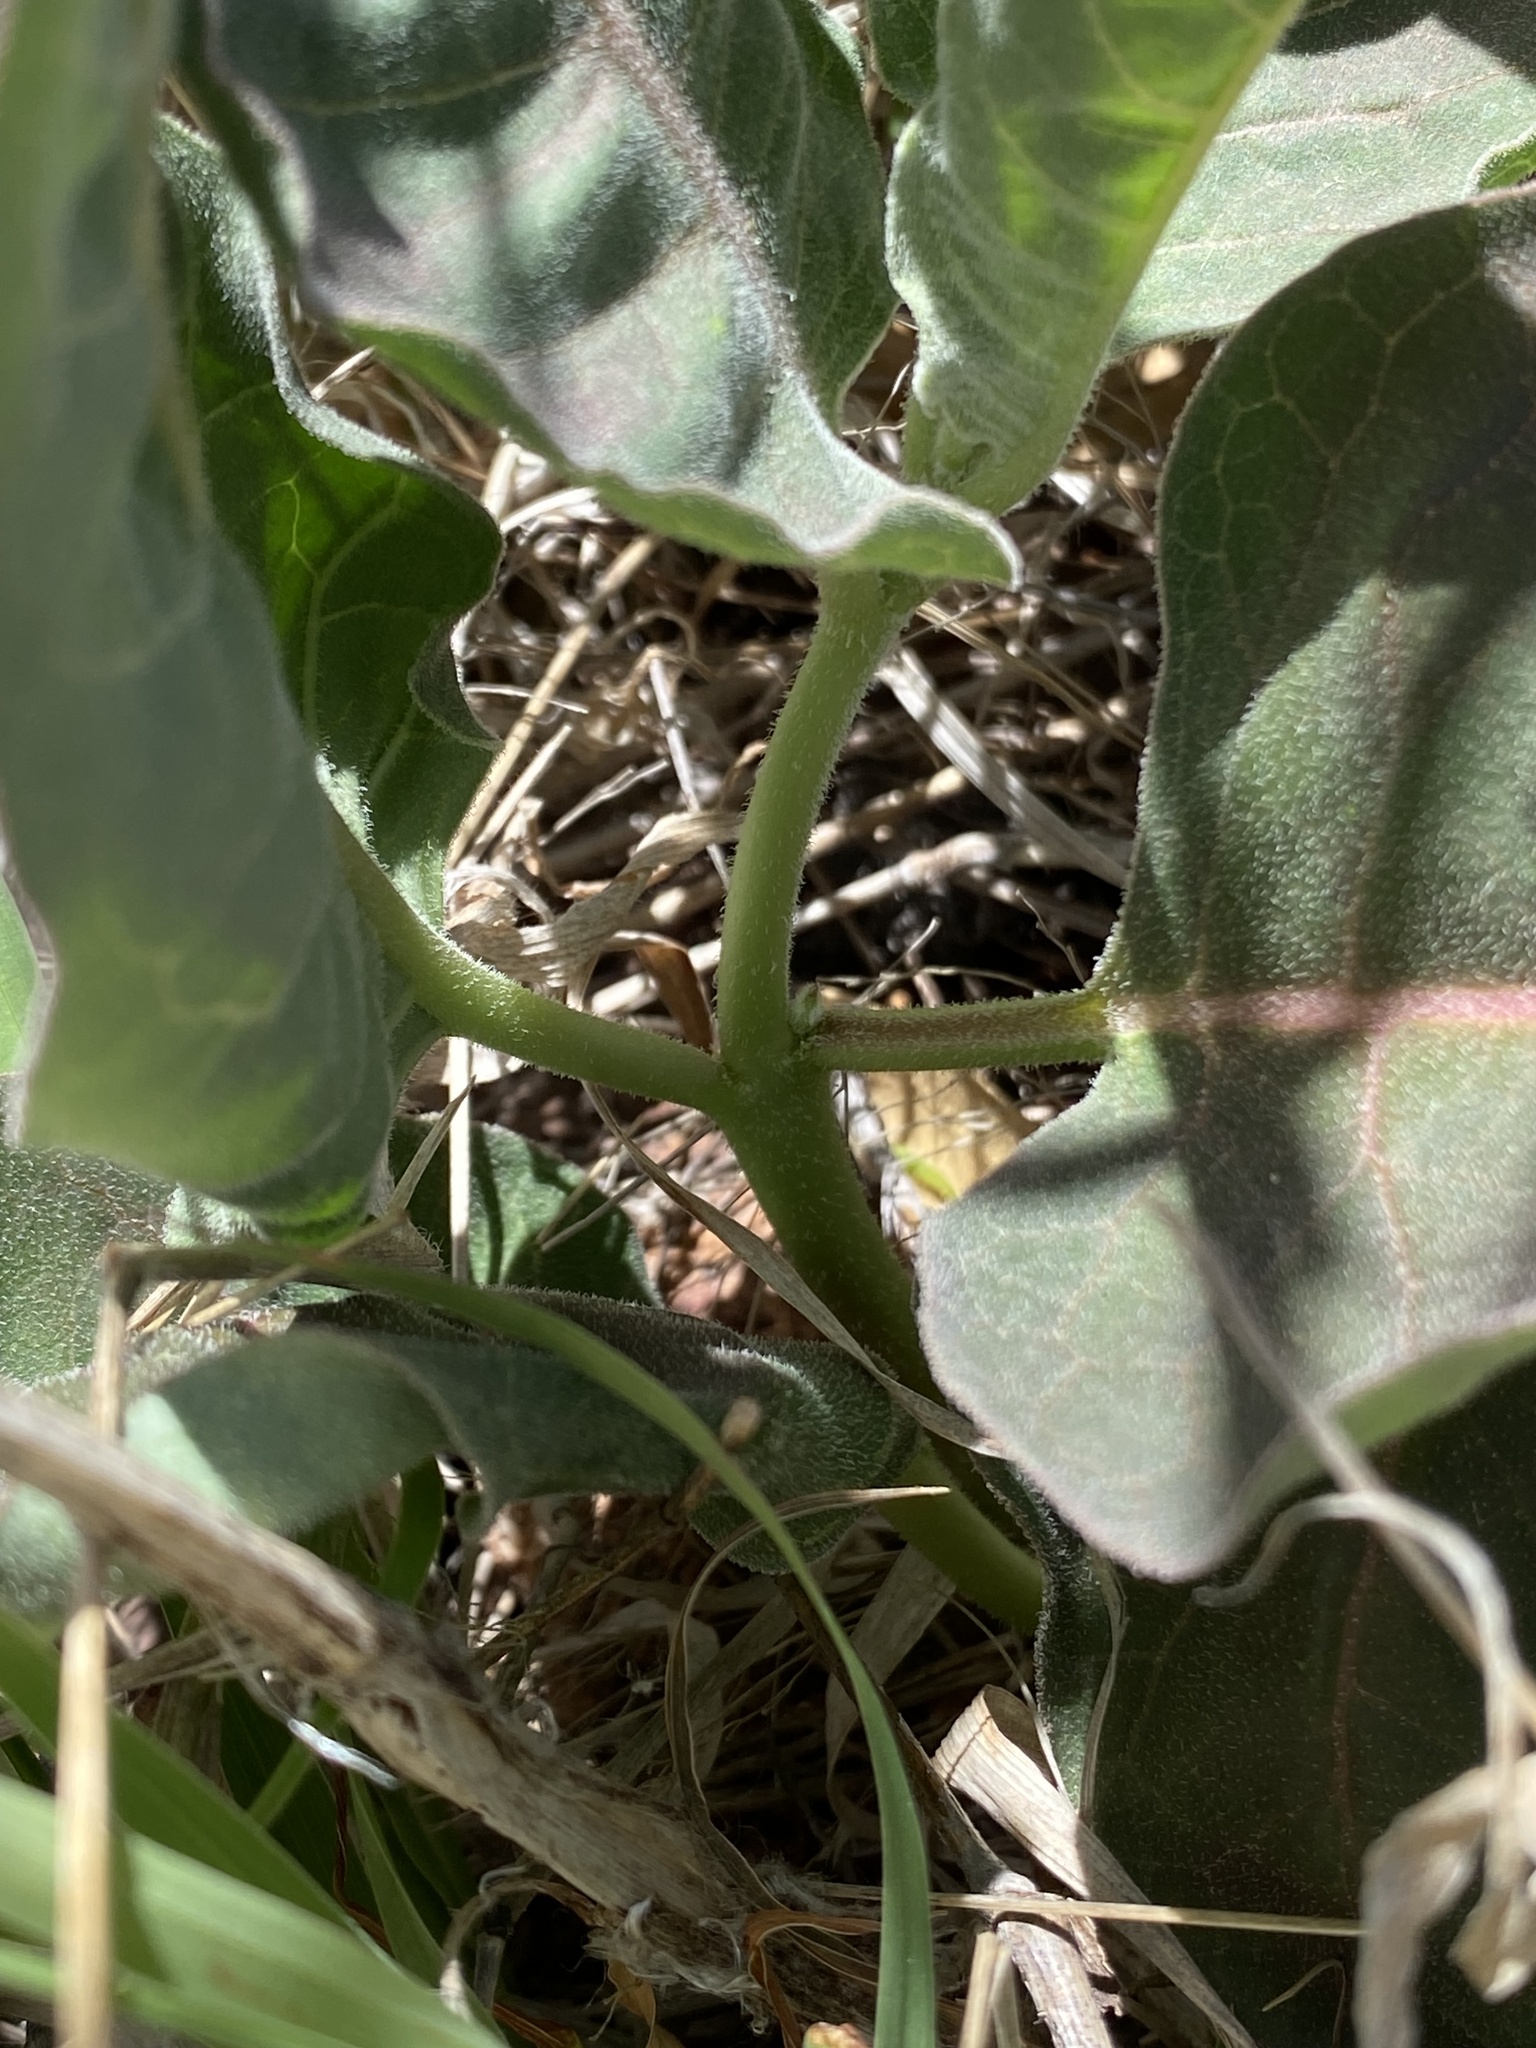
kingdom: Plantae
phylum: Tracheophyta
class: Magnoliopsida
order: Gentianales
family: Apocynaceae
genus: Asclepias
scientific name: Asclepias nyctaginifolia
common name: Mojave milkweed
